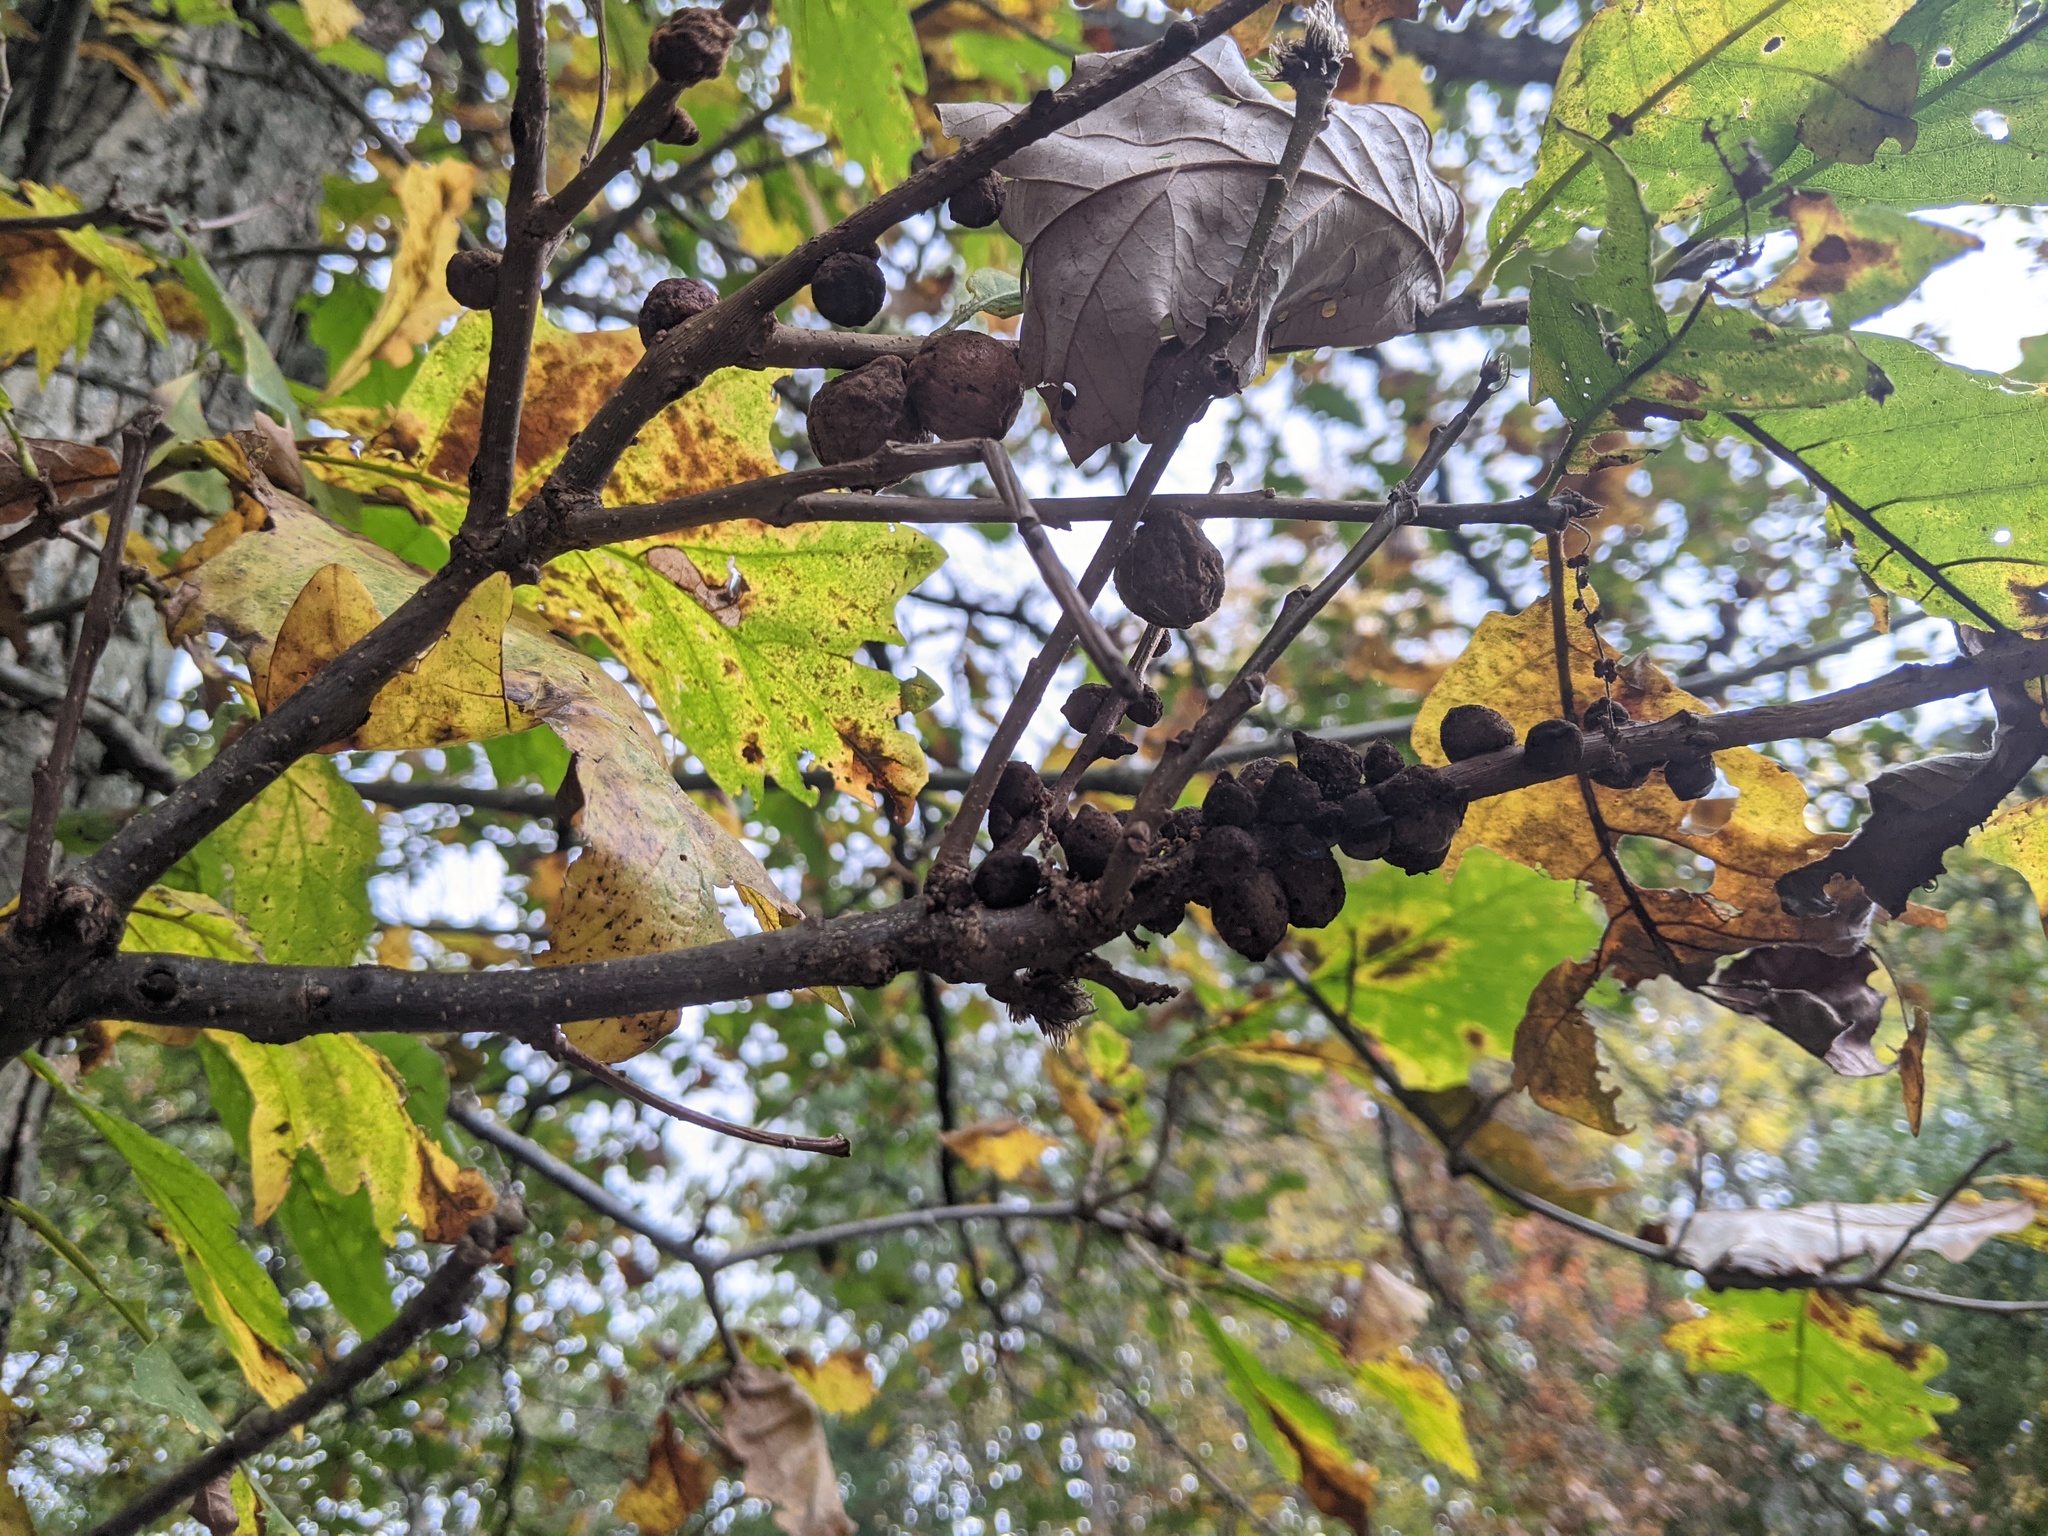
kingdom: Animalia
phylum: Arthropoda
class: Insecta
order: Hymenoptera
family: Cynipidae
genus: Disholcaspis
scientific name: Disholcaspis
